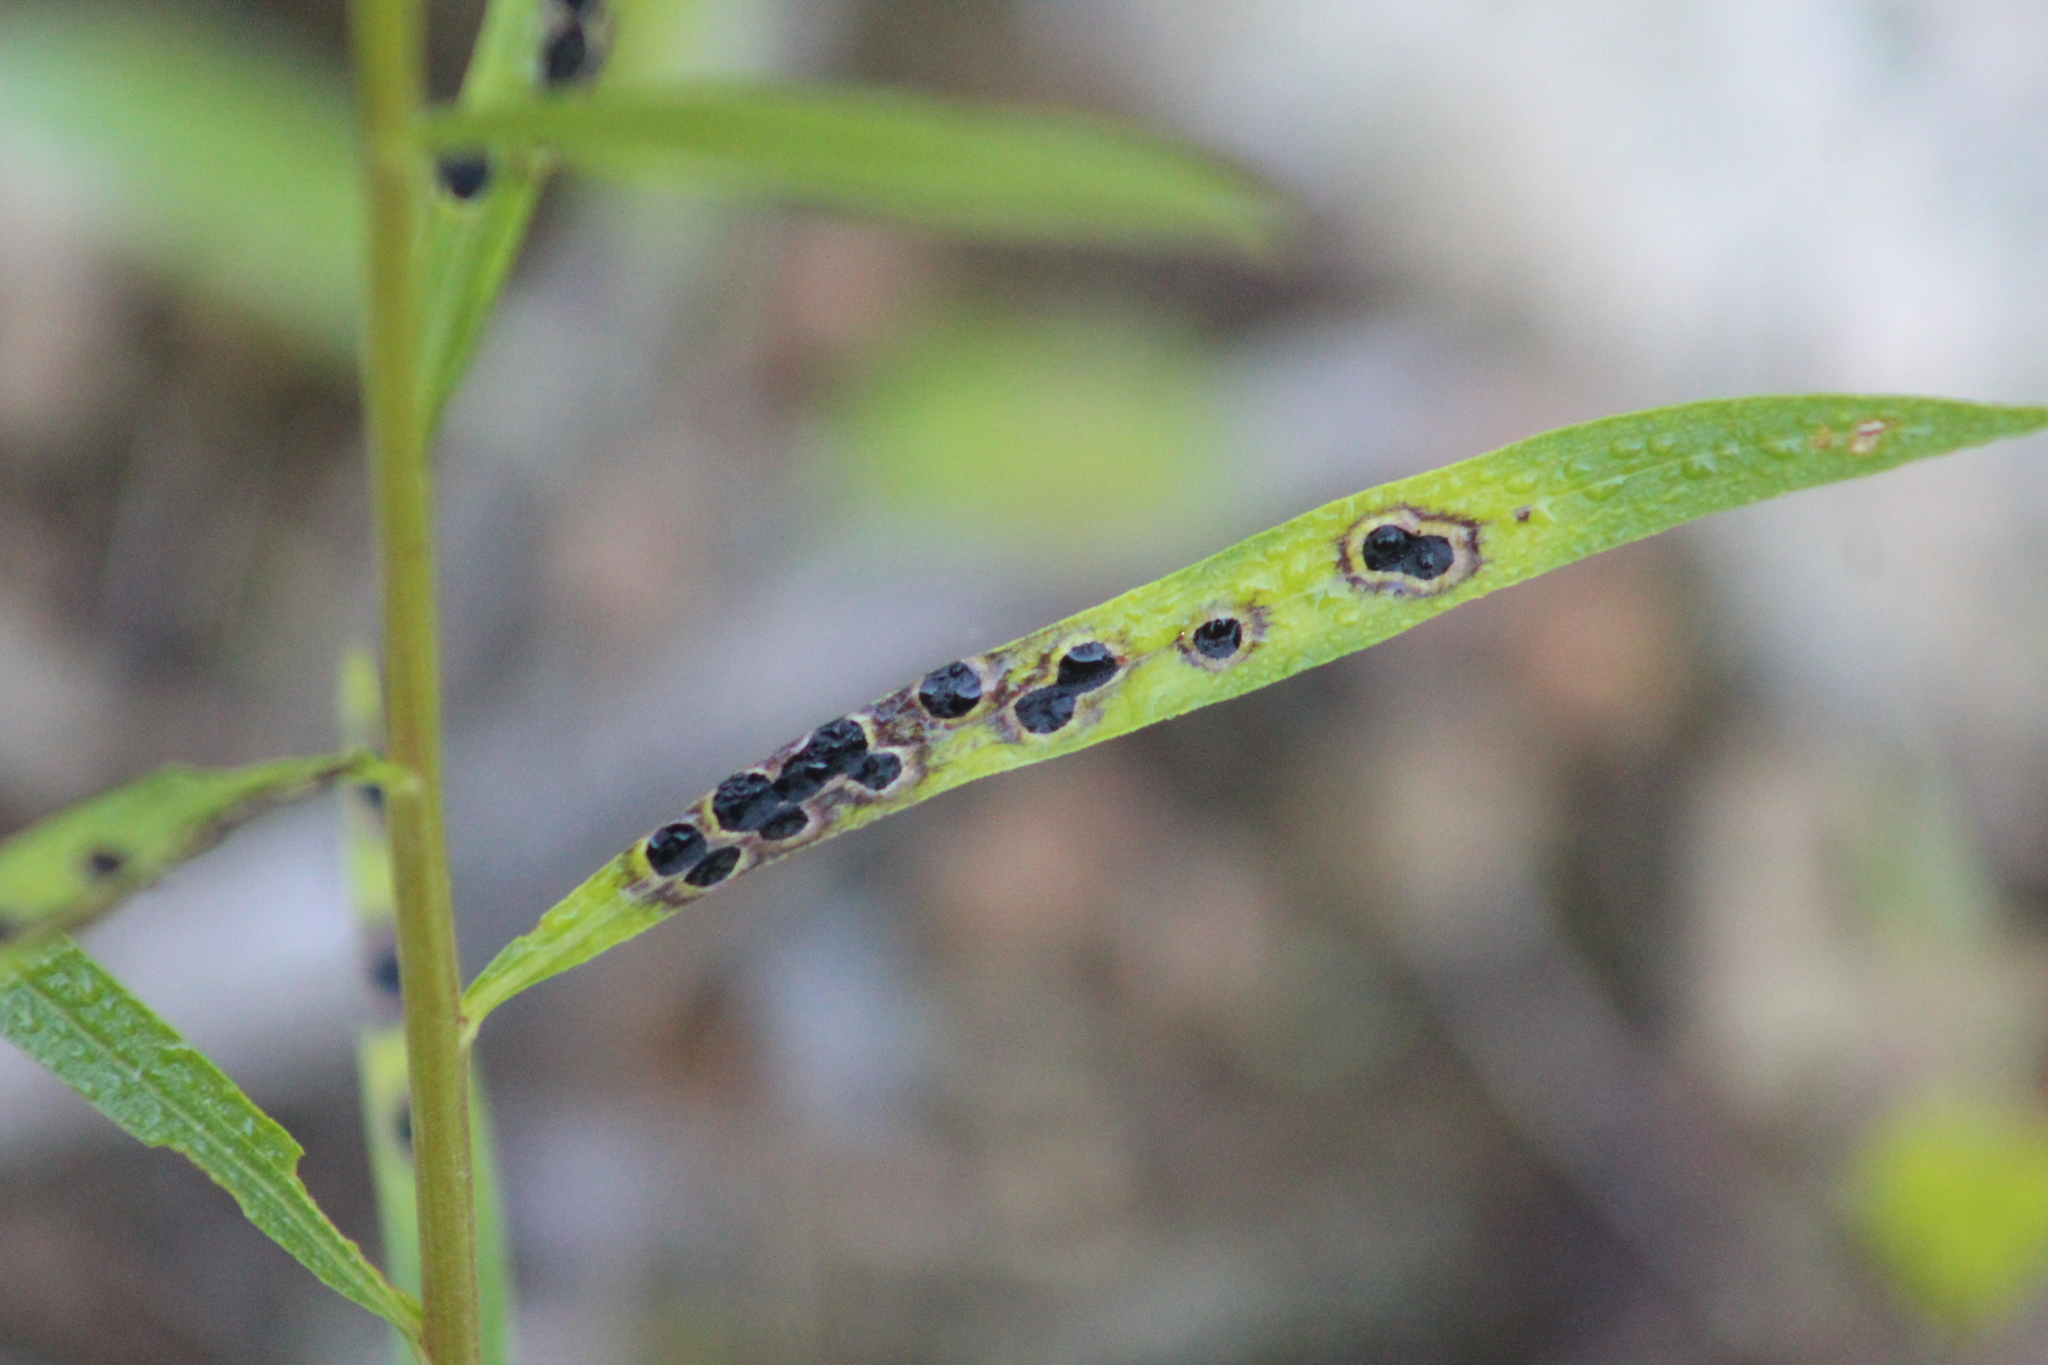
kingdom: Animalia
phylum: Arthropoda
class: Insecta
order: Diptera
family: Cecidomyiidae
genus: Asteromyia
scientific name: Asteromyia euthamiae
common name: Euthamia leaf gall midge
